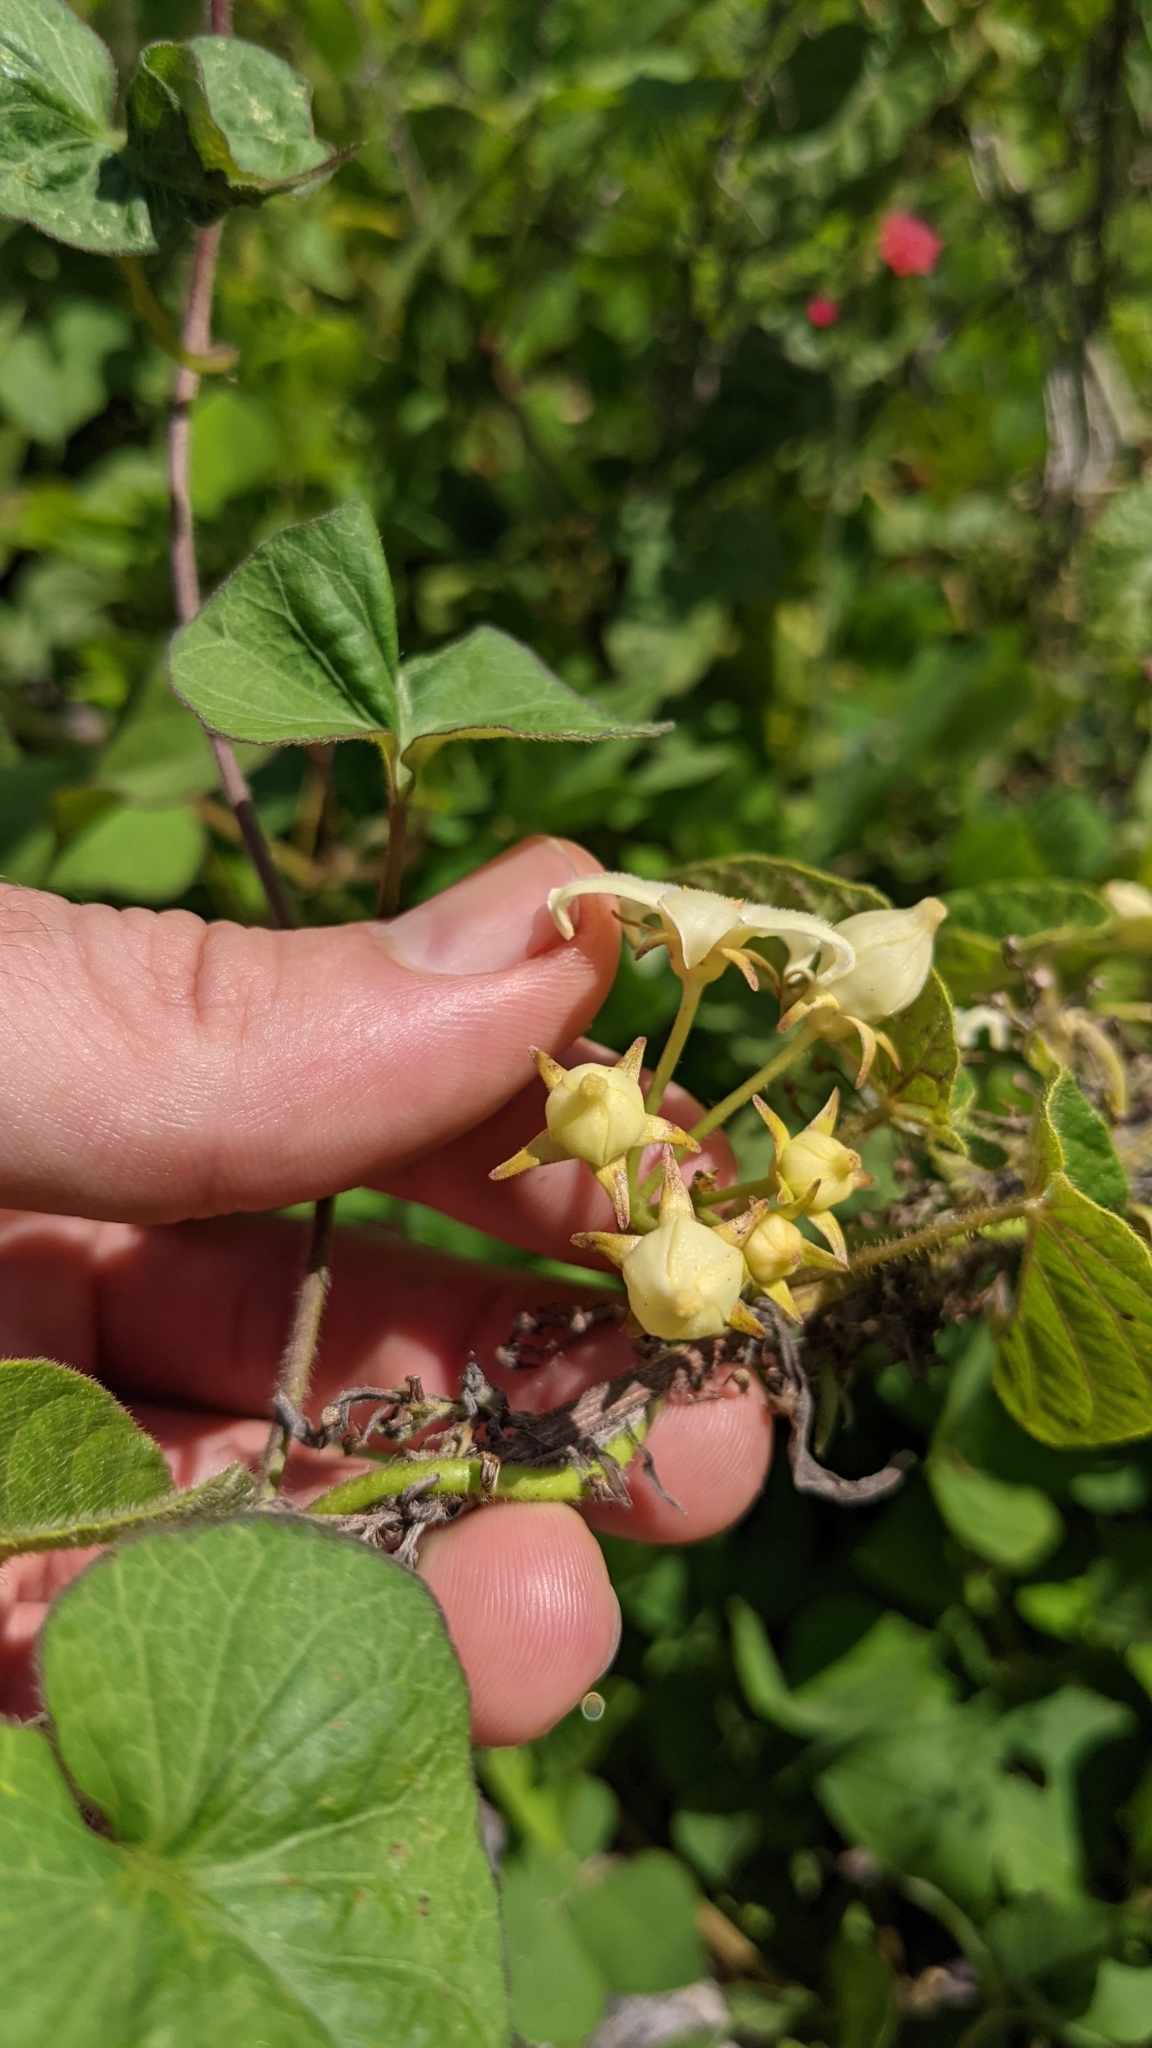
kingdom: Plantae
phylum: Tracheophyta
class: Magnoliopsida
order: Gentianales
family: Apocynaceae
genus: Gonolobus
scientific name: Gonolobus edulis
